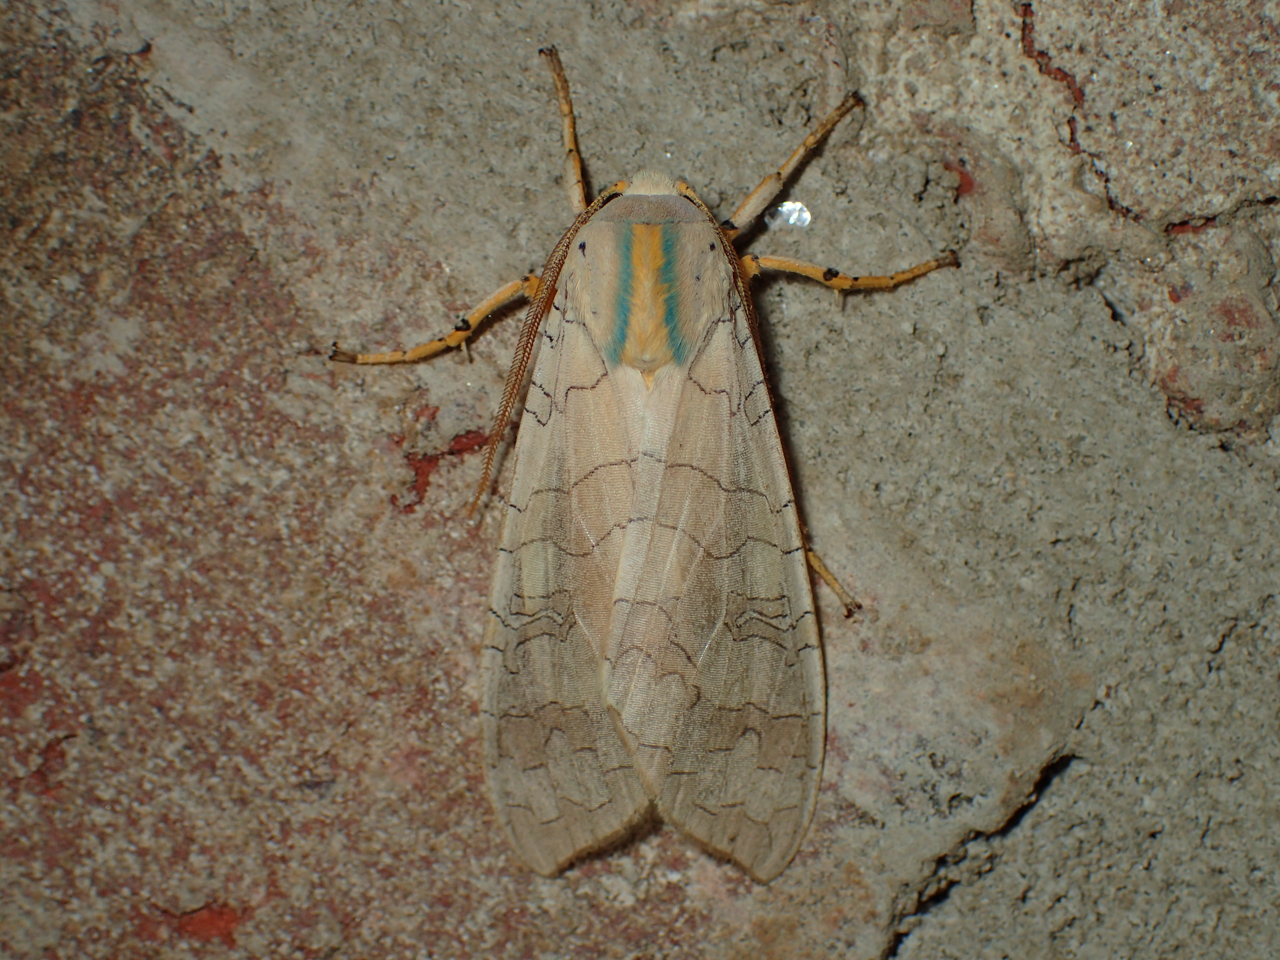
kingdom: Animalia
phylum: Arthropoda
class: Insecta
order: Lepidoptera
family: Erebidae
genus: Halysidota
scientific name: Halysidota
